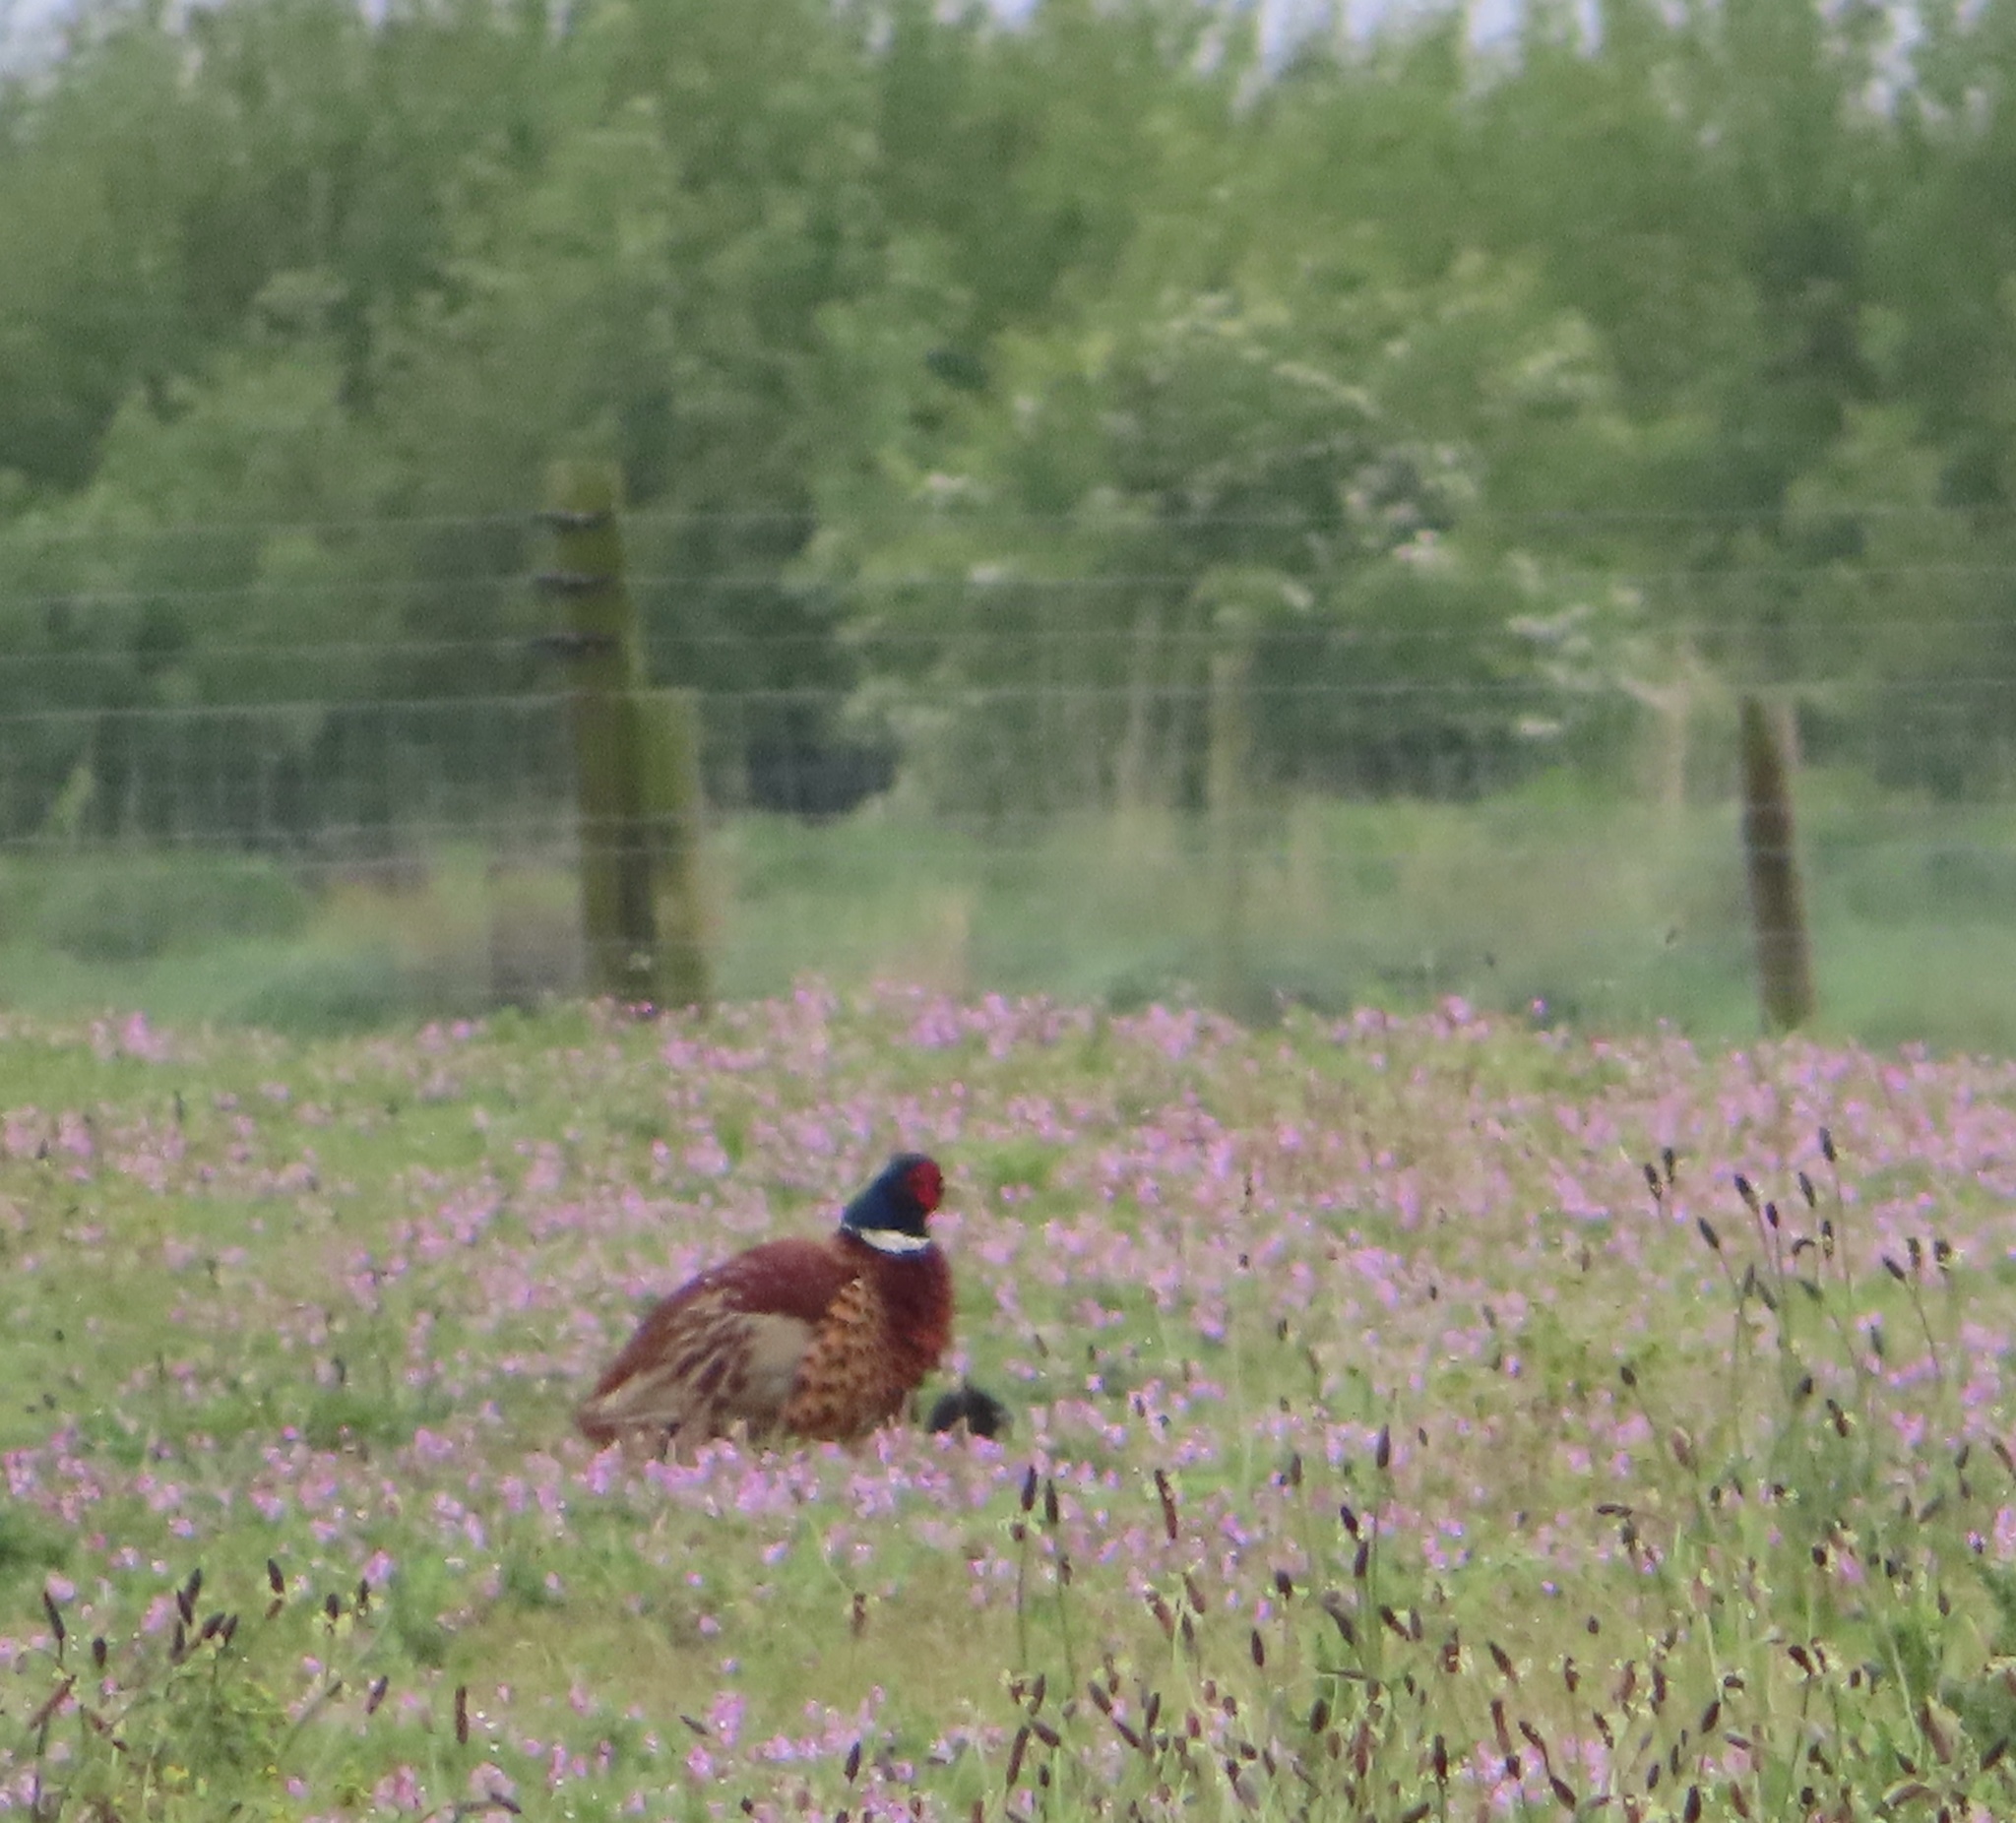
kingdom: Animalia
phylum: Chordata
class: Aves
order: Galliformes
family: Phasianidae
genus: Phasianus
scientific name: Phasianus colchicus
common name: Common pheasant
